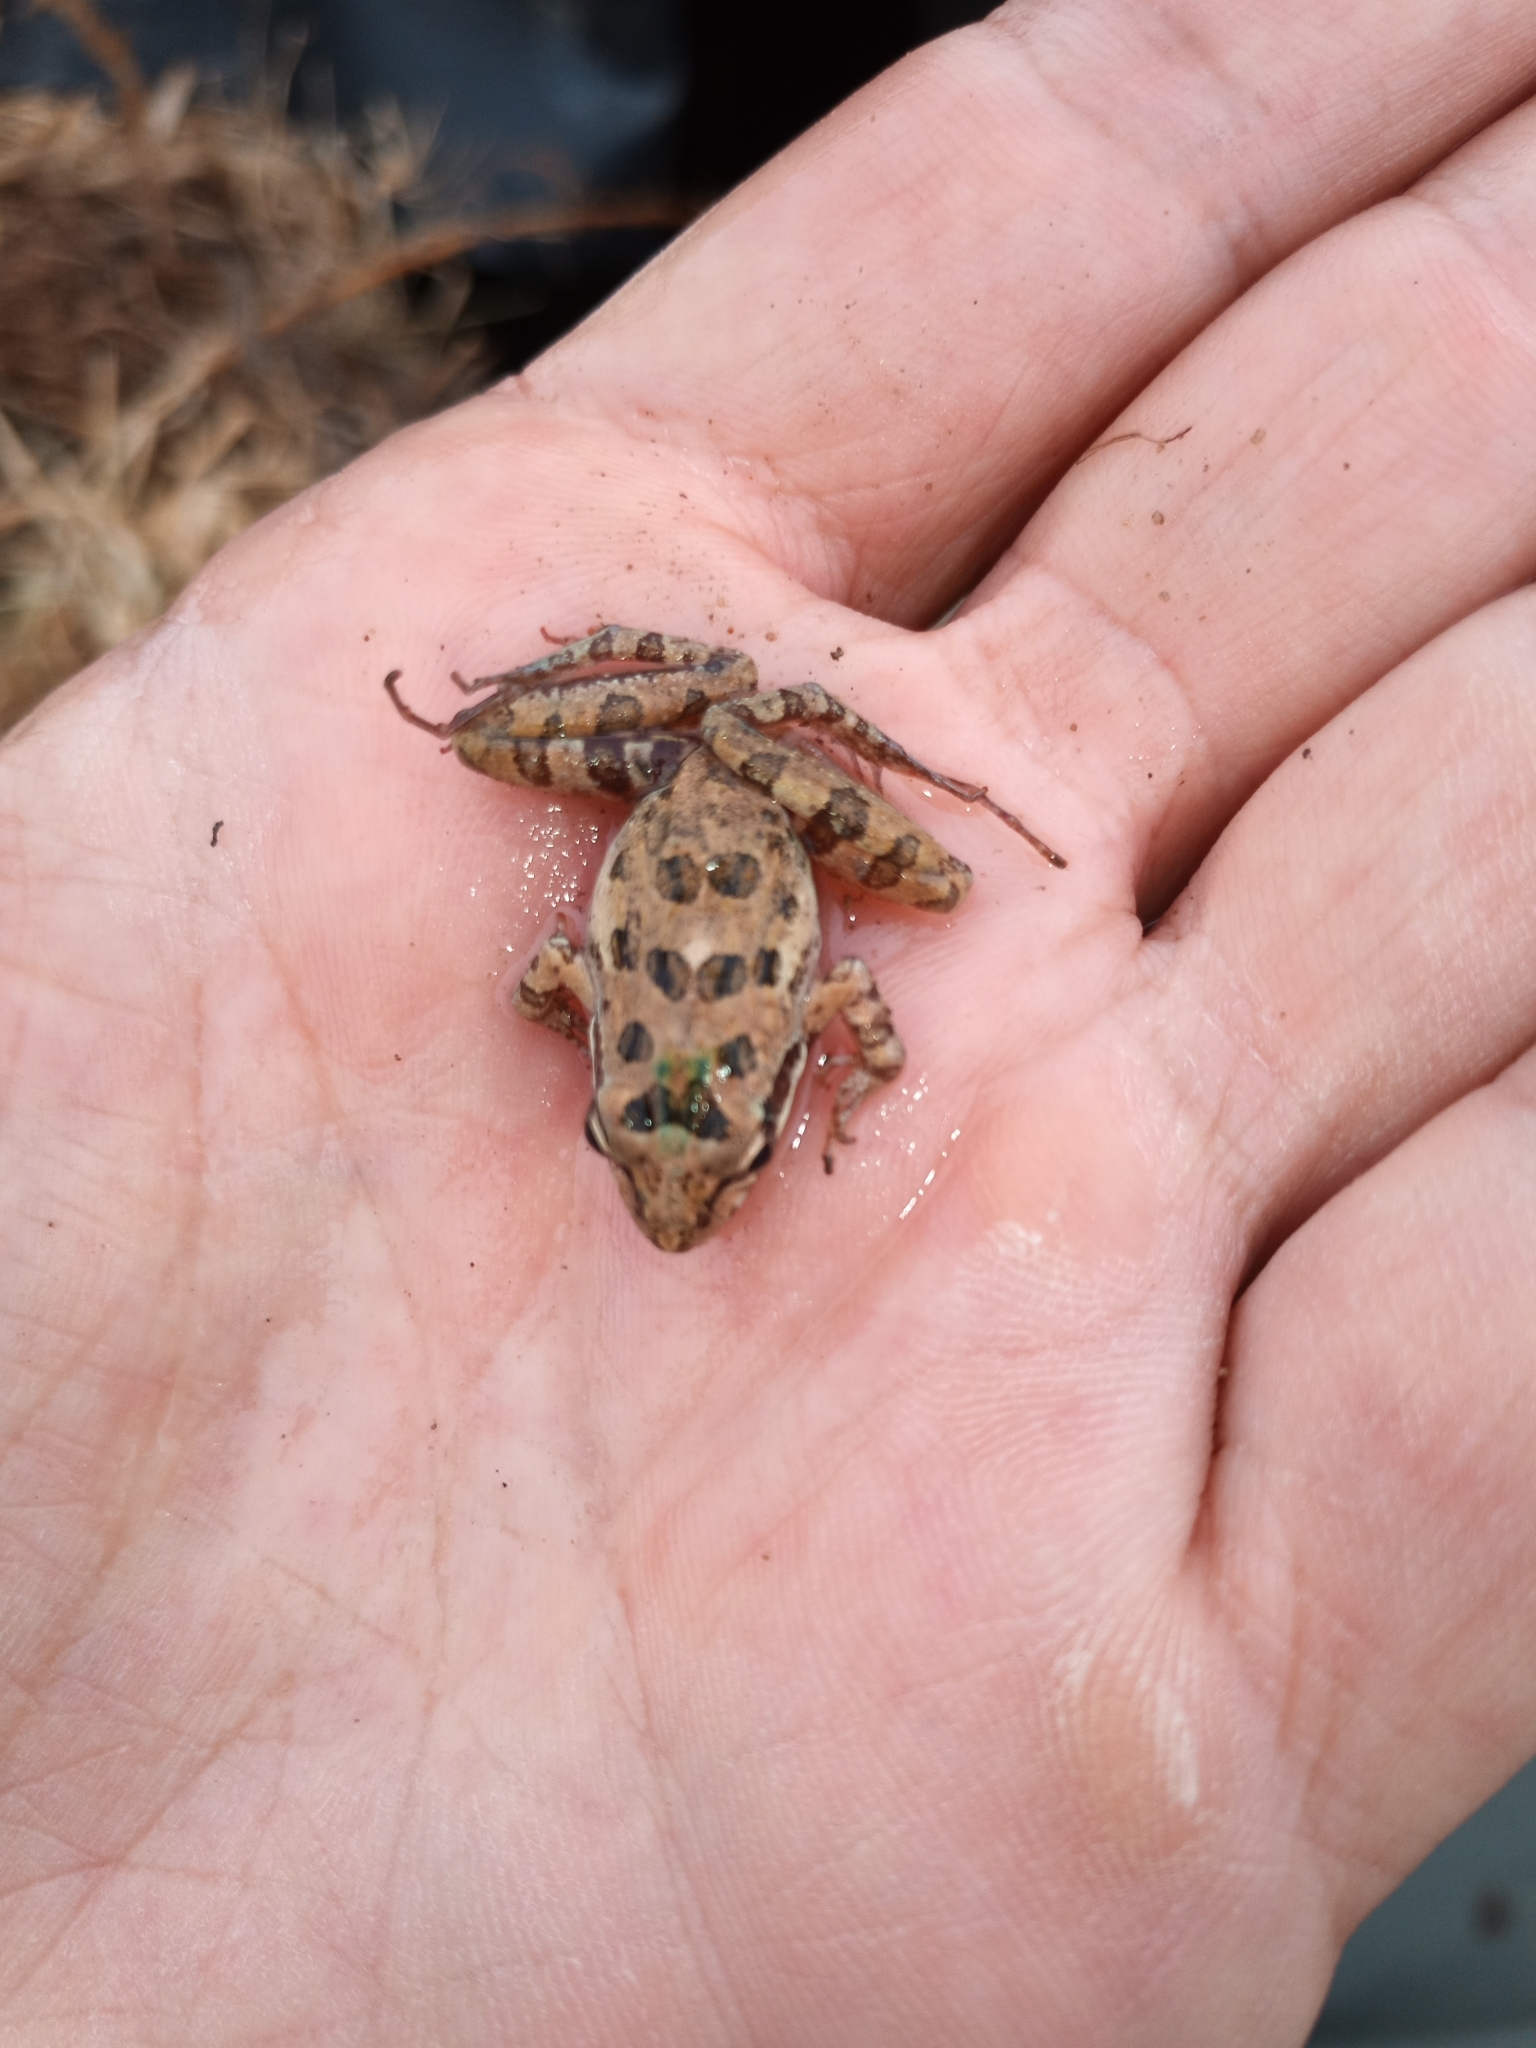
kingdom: Animalia
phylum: Chordata
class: Amphibia
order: Anura
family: Pyxicephalidae
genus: Strongylopus
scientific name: Strongylopus grayii
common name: Gray's stream frog
